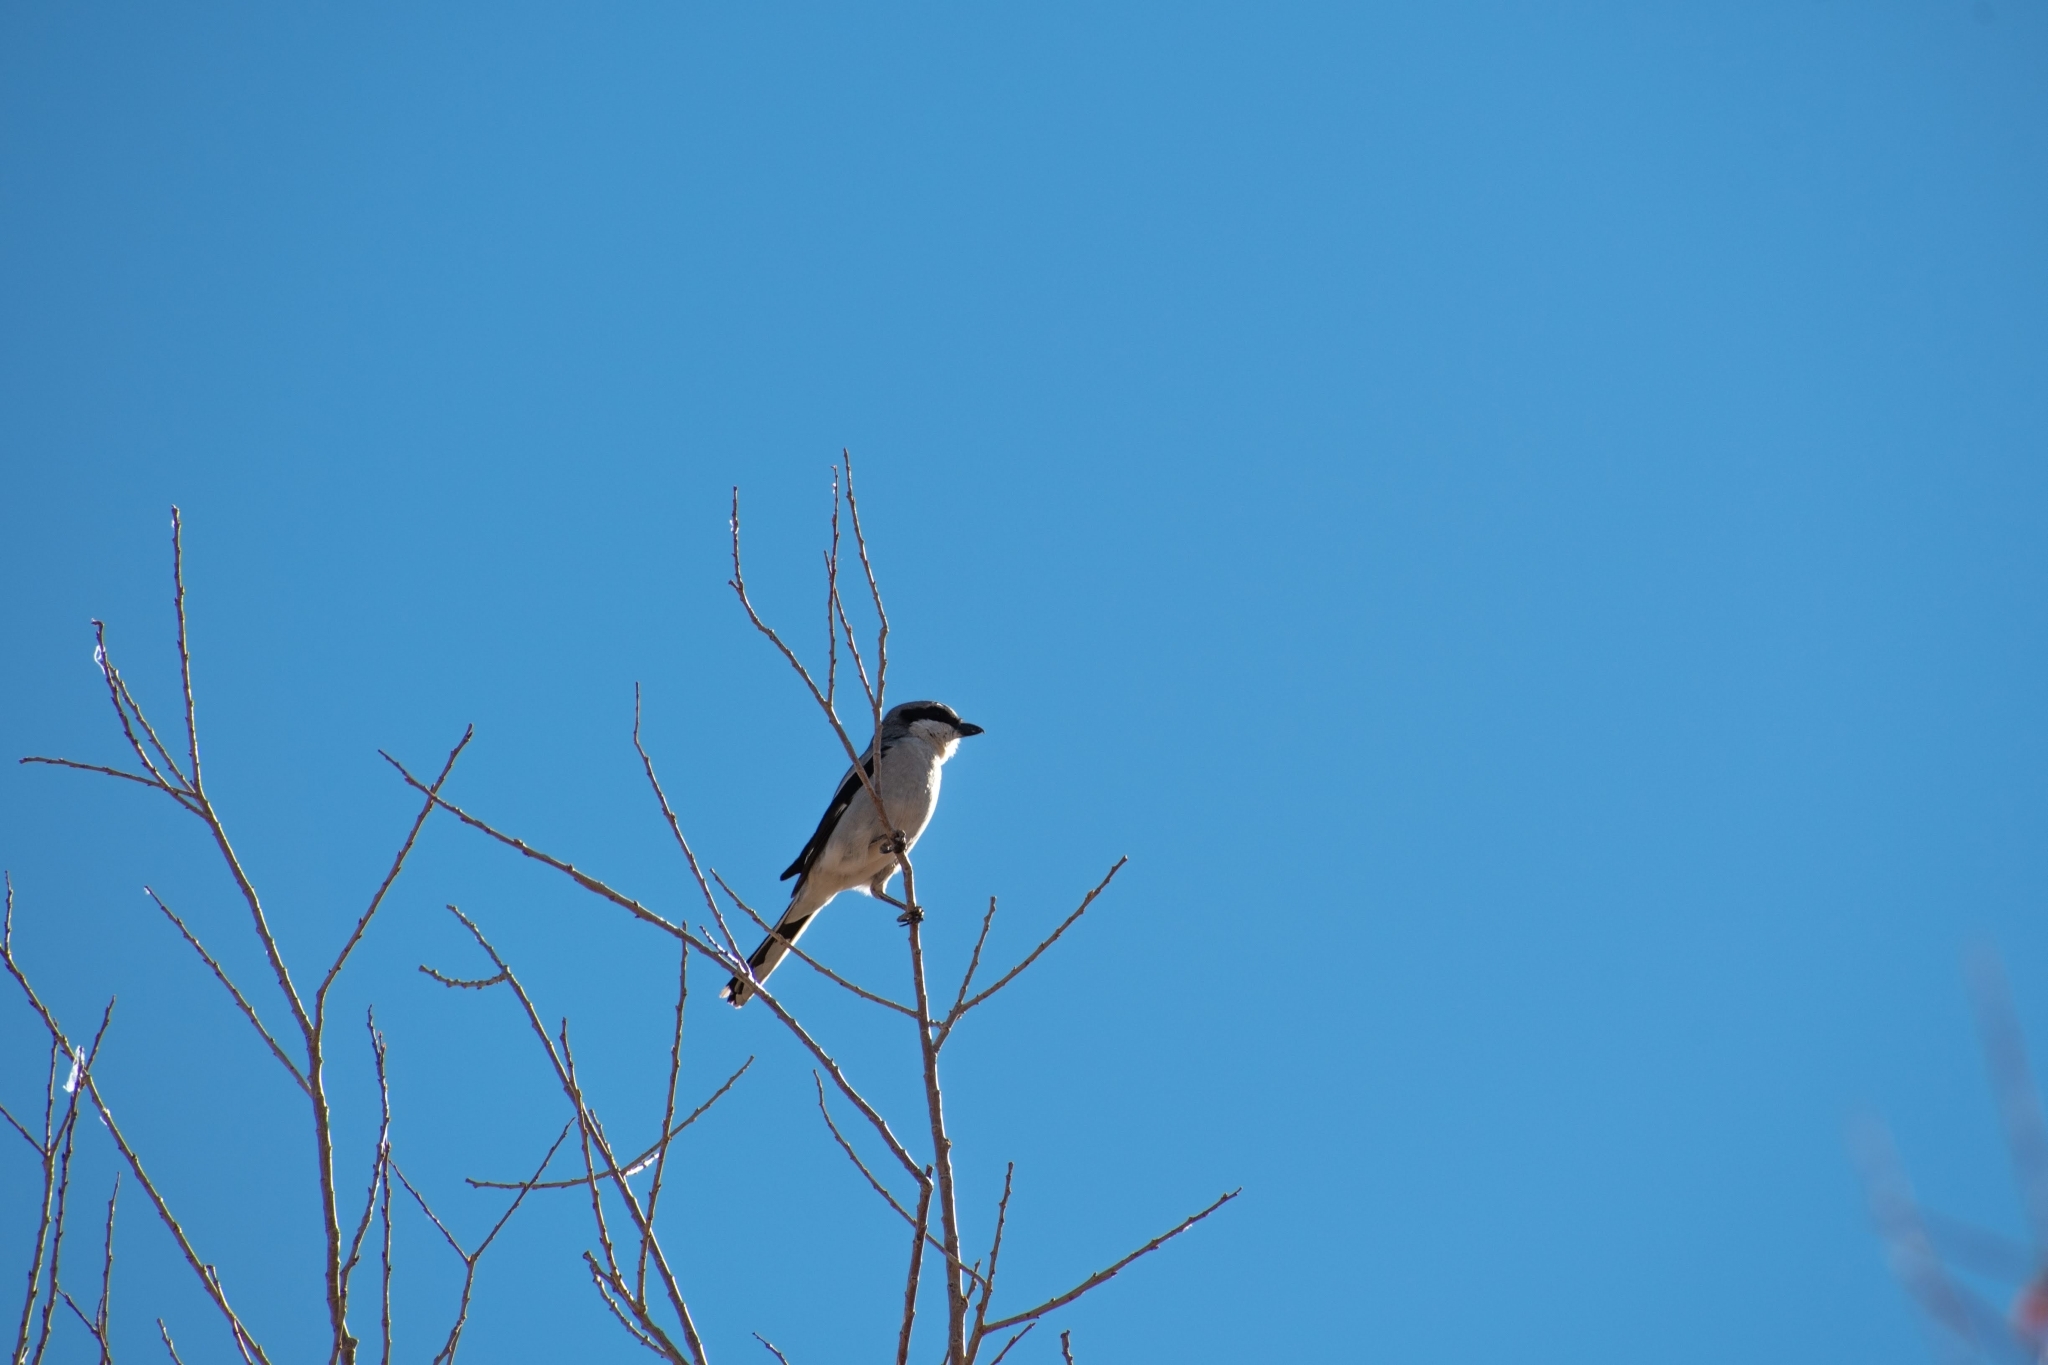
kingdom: Animalia
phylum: Chordata
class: Aves
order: Passeriformes
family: Laniidae
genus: Lanius
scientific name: Lanius ludovicianus
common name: Loggerhead shrike
